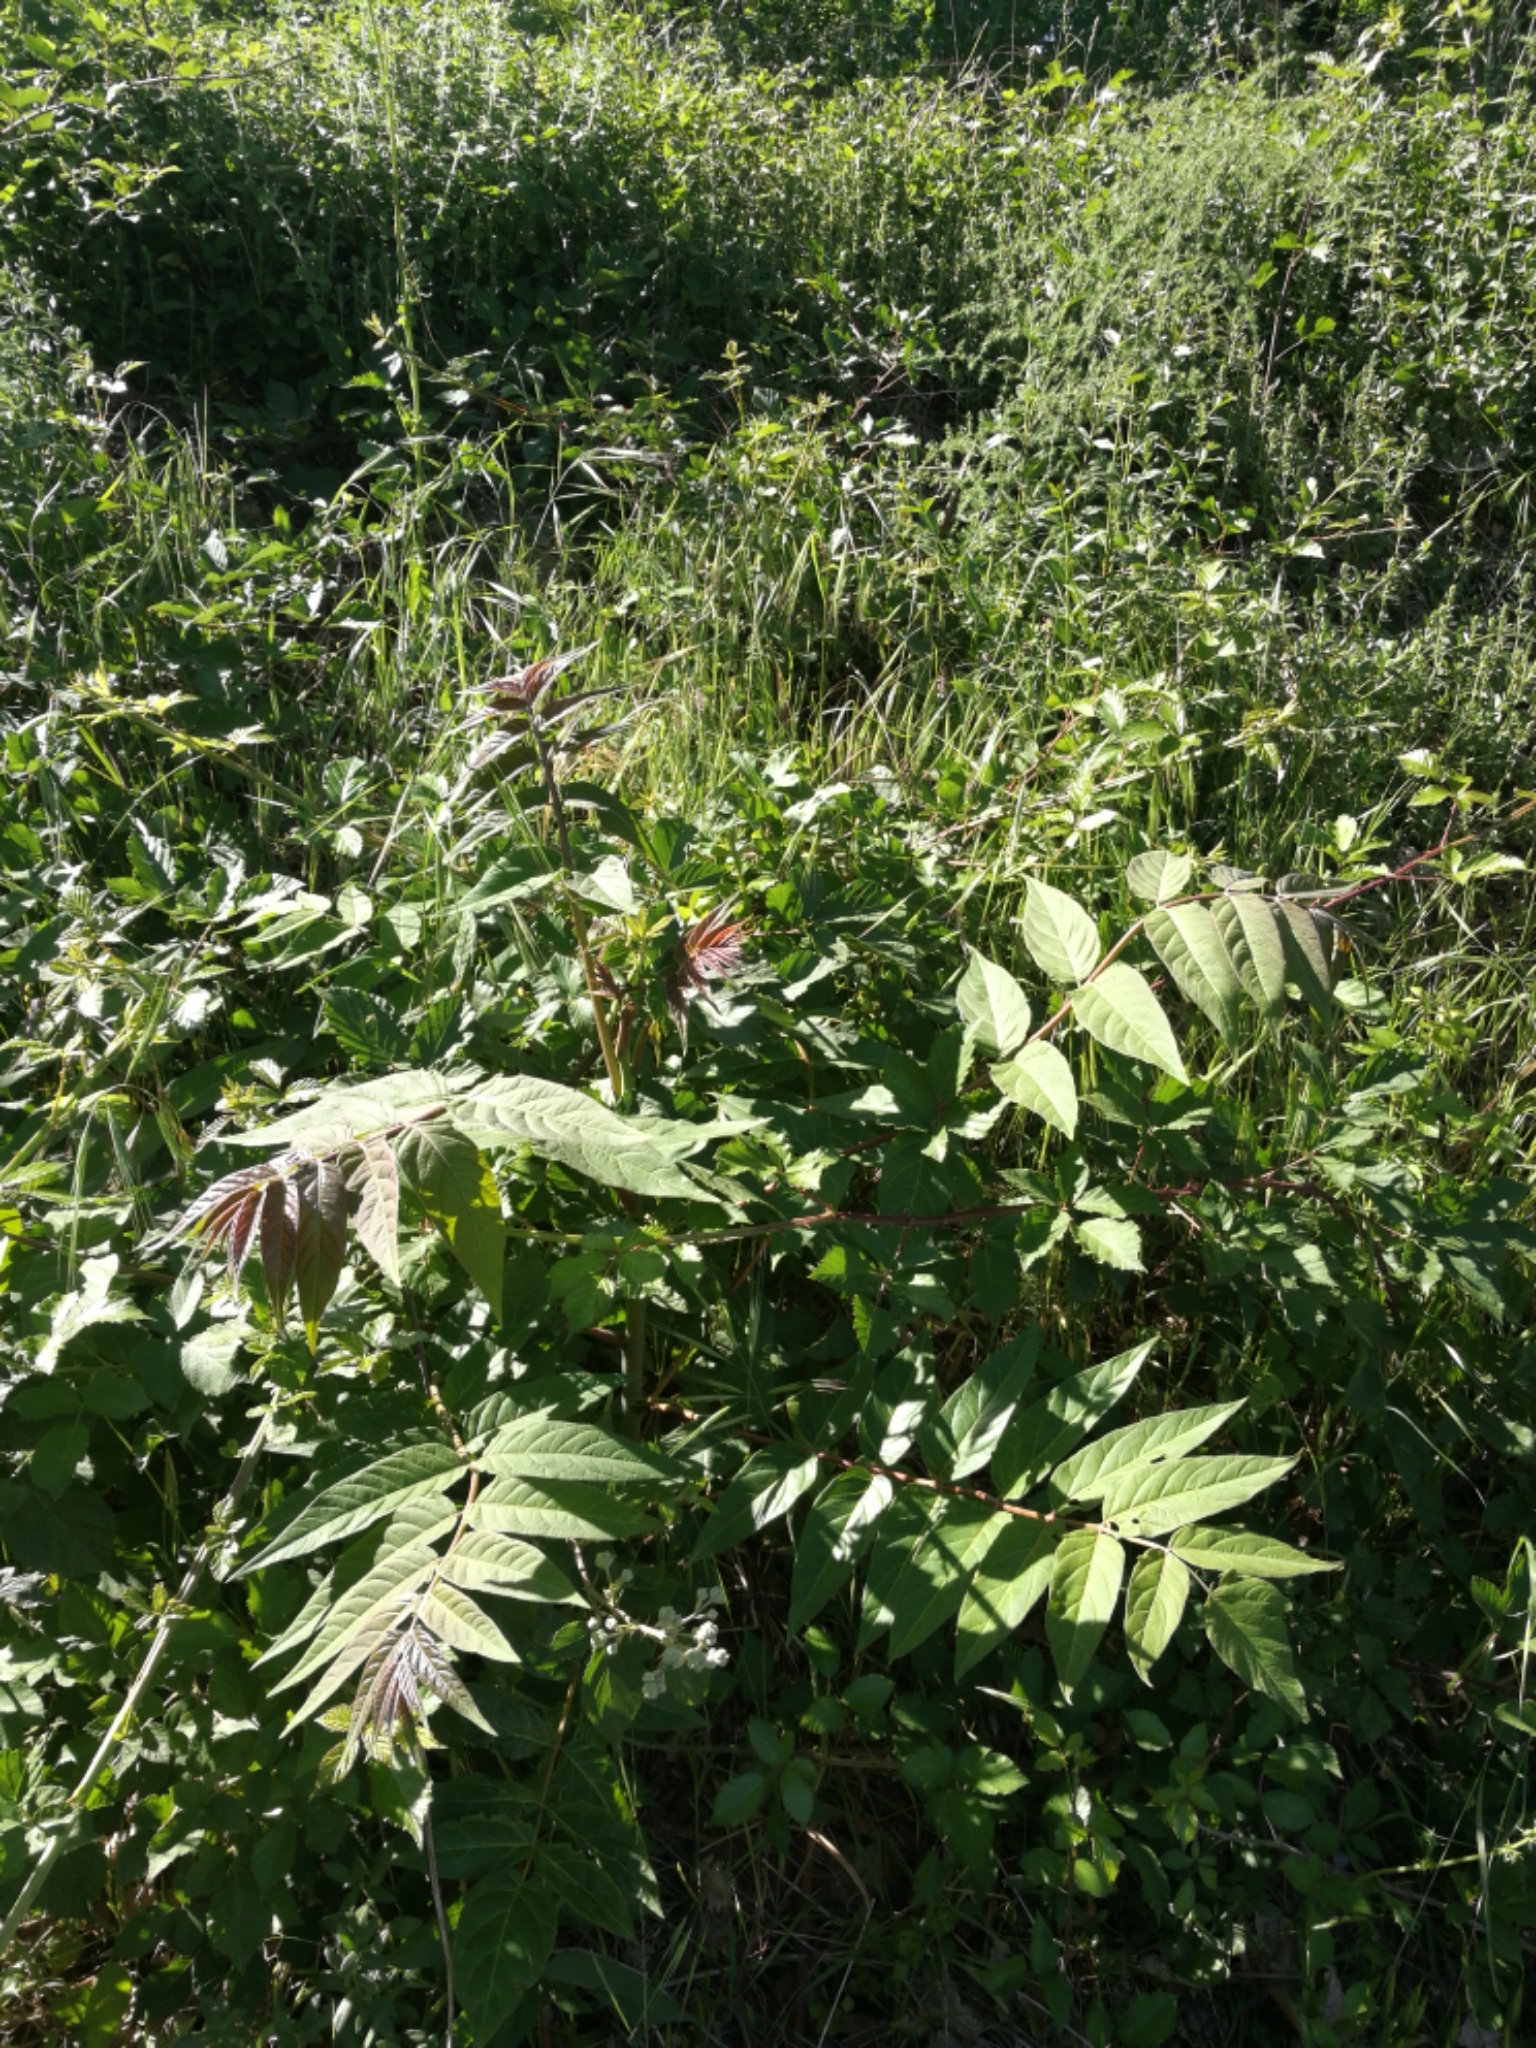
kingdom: Plantae
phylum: Tracheophyta
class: Magnoliopsida
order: Sapindales
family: Simaroubaceae
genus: Ailanthus
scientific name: Ailanthus altissima
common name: Tree-of-heaven
